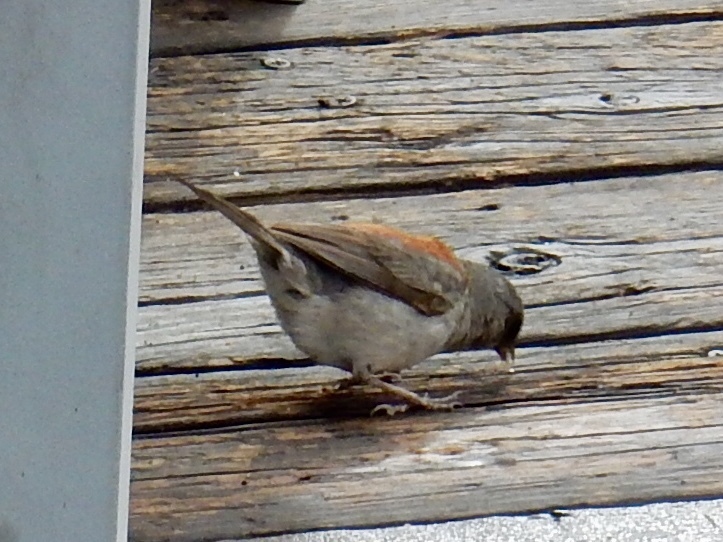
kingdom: Animalia
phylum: Chordata
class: Aves
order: Passeriformes
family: Passerellidae
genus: Junco
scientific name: Junco hyemalis
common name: Dark-eyed junco
